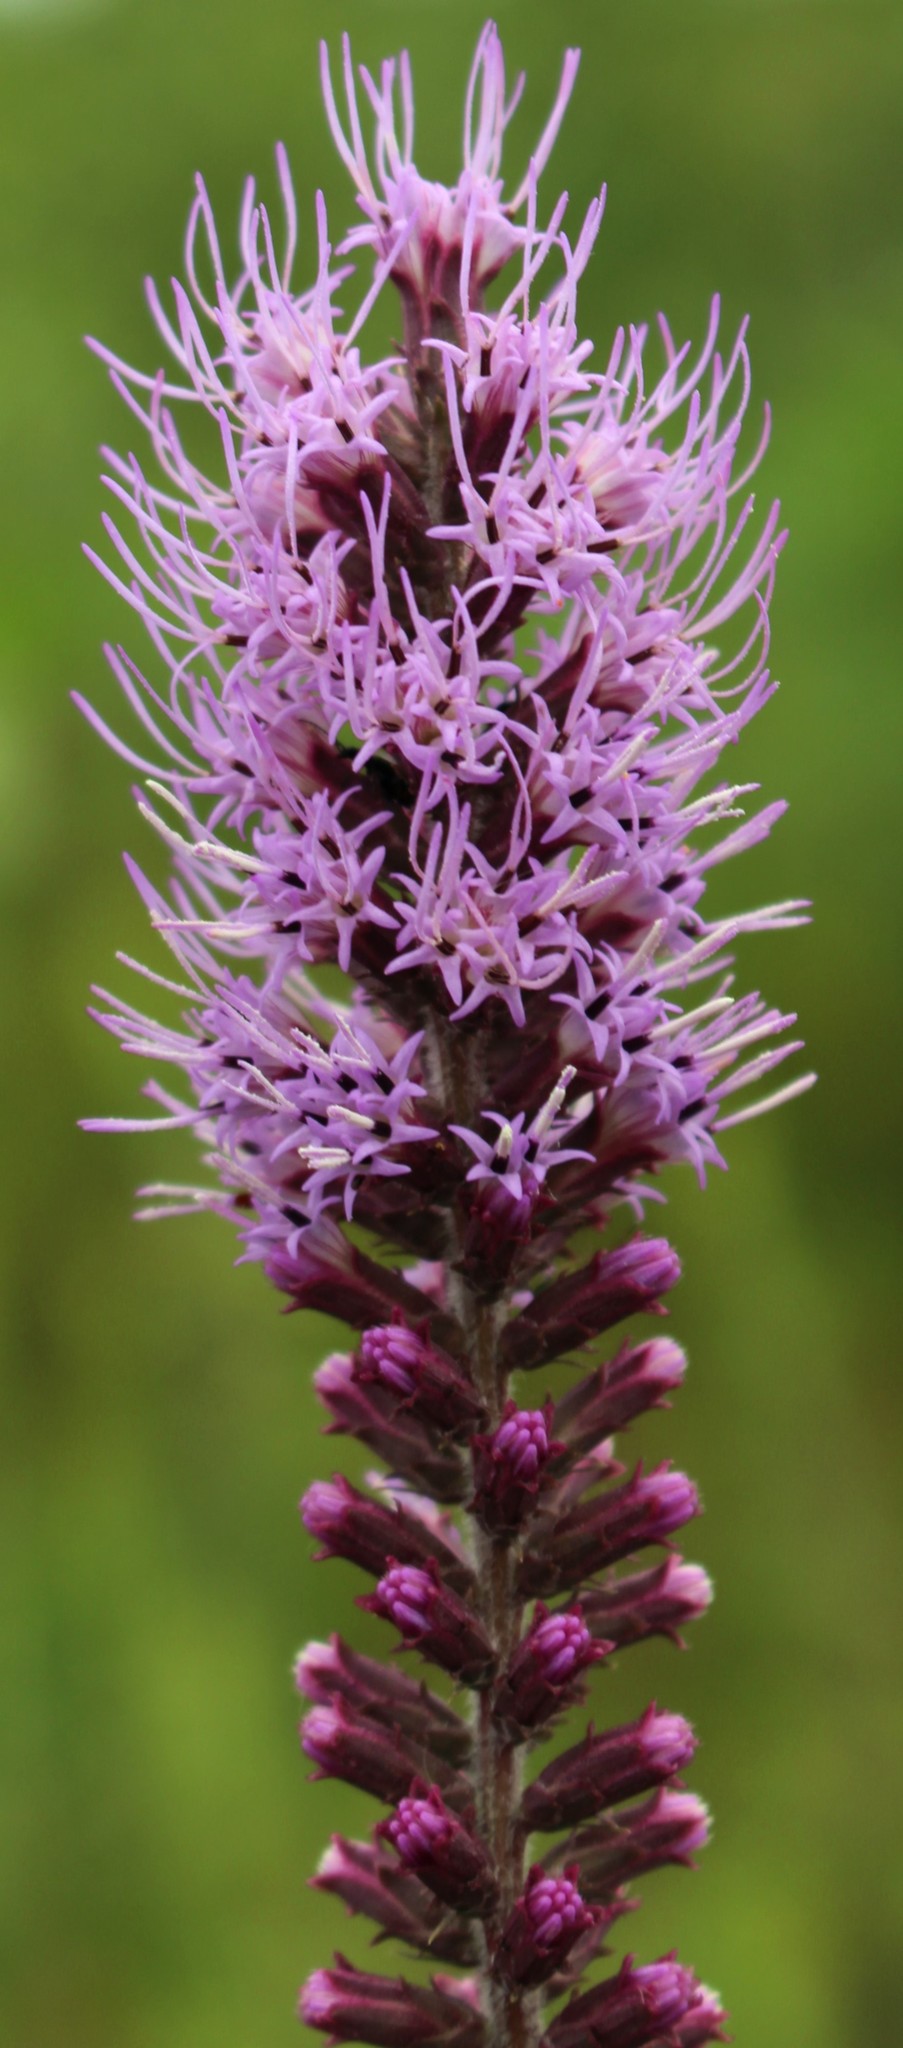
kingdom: Plantae
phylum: Tracheophyta
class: Magnoliopsida
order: Asterales
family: Asteraceae
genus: Liatris
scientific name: Liatris pycnostachya
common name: Cattail gayfeather
